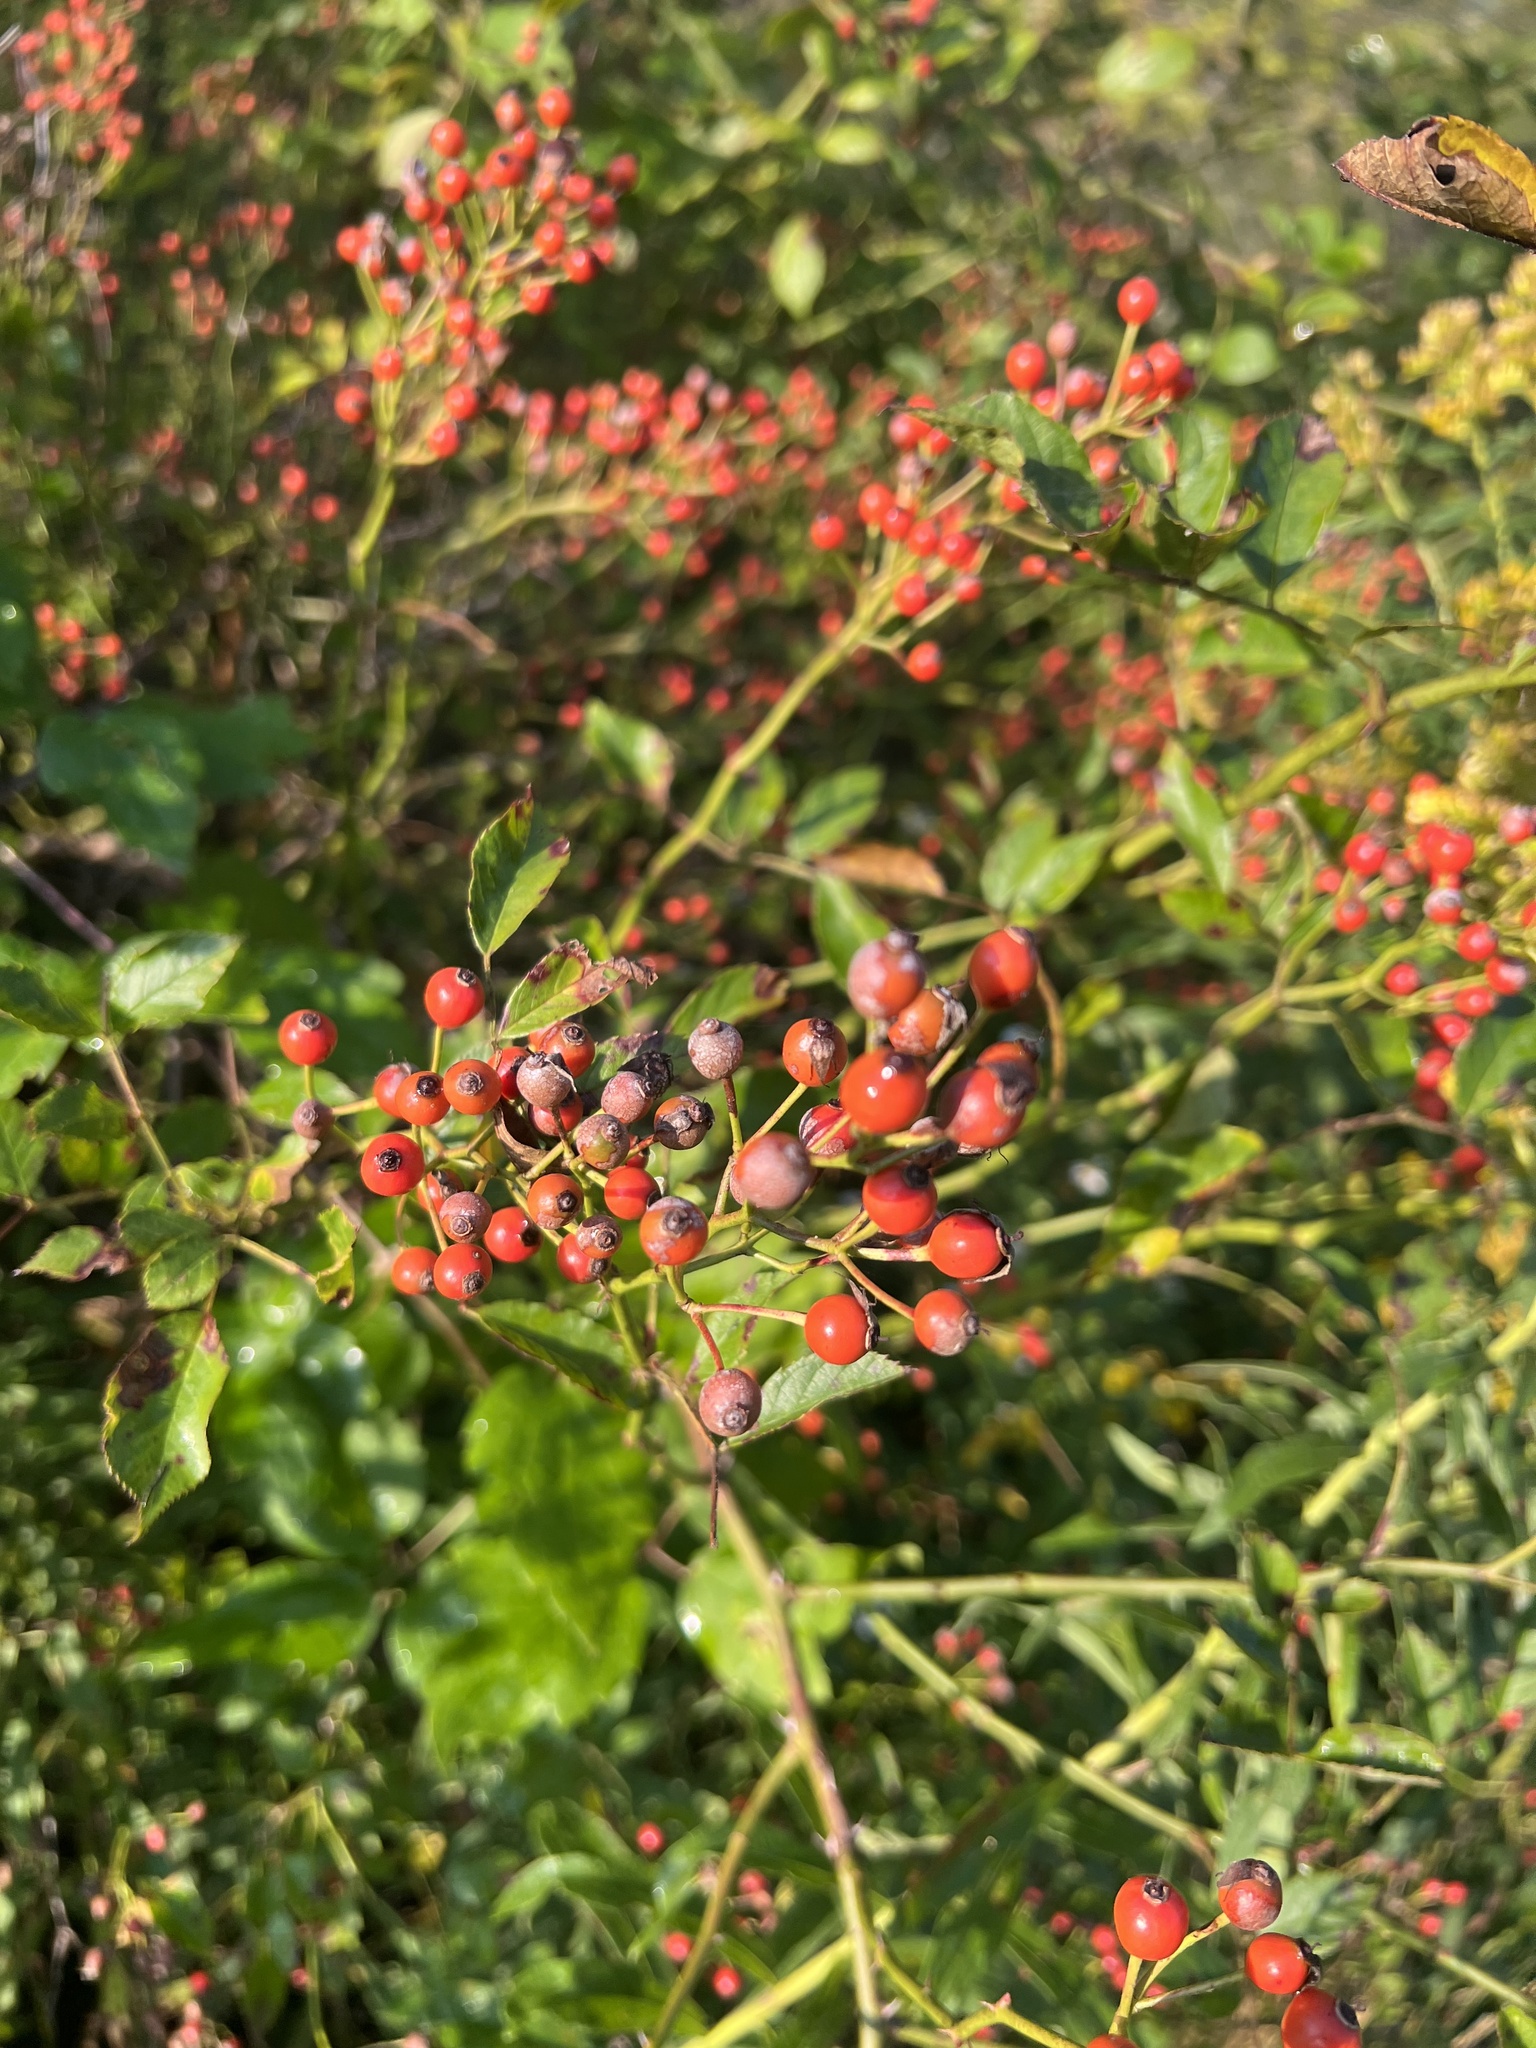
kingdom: Plantae
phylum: Tracheophyta
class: Magnoliopsida
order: Rosales
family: Rosaceae
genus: Rosa
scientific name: Rosa multiflora
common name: Multiflora rose
